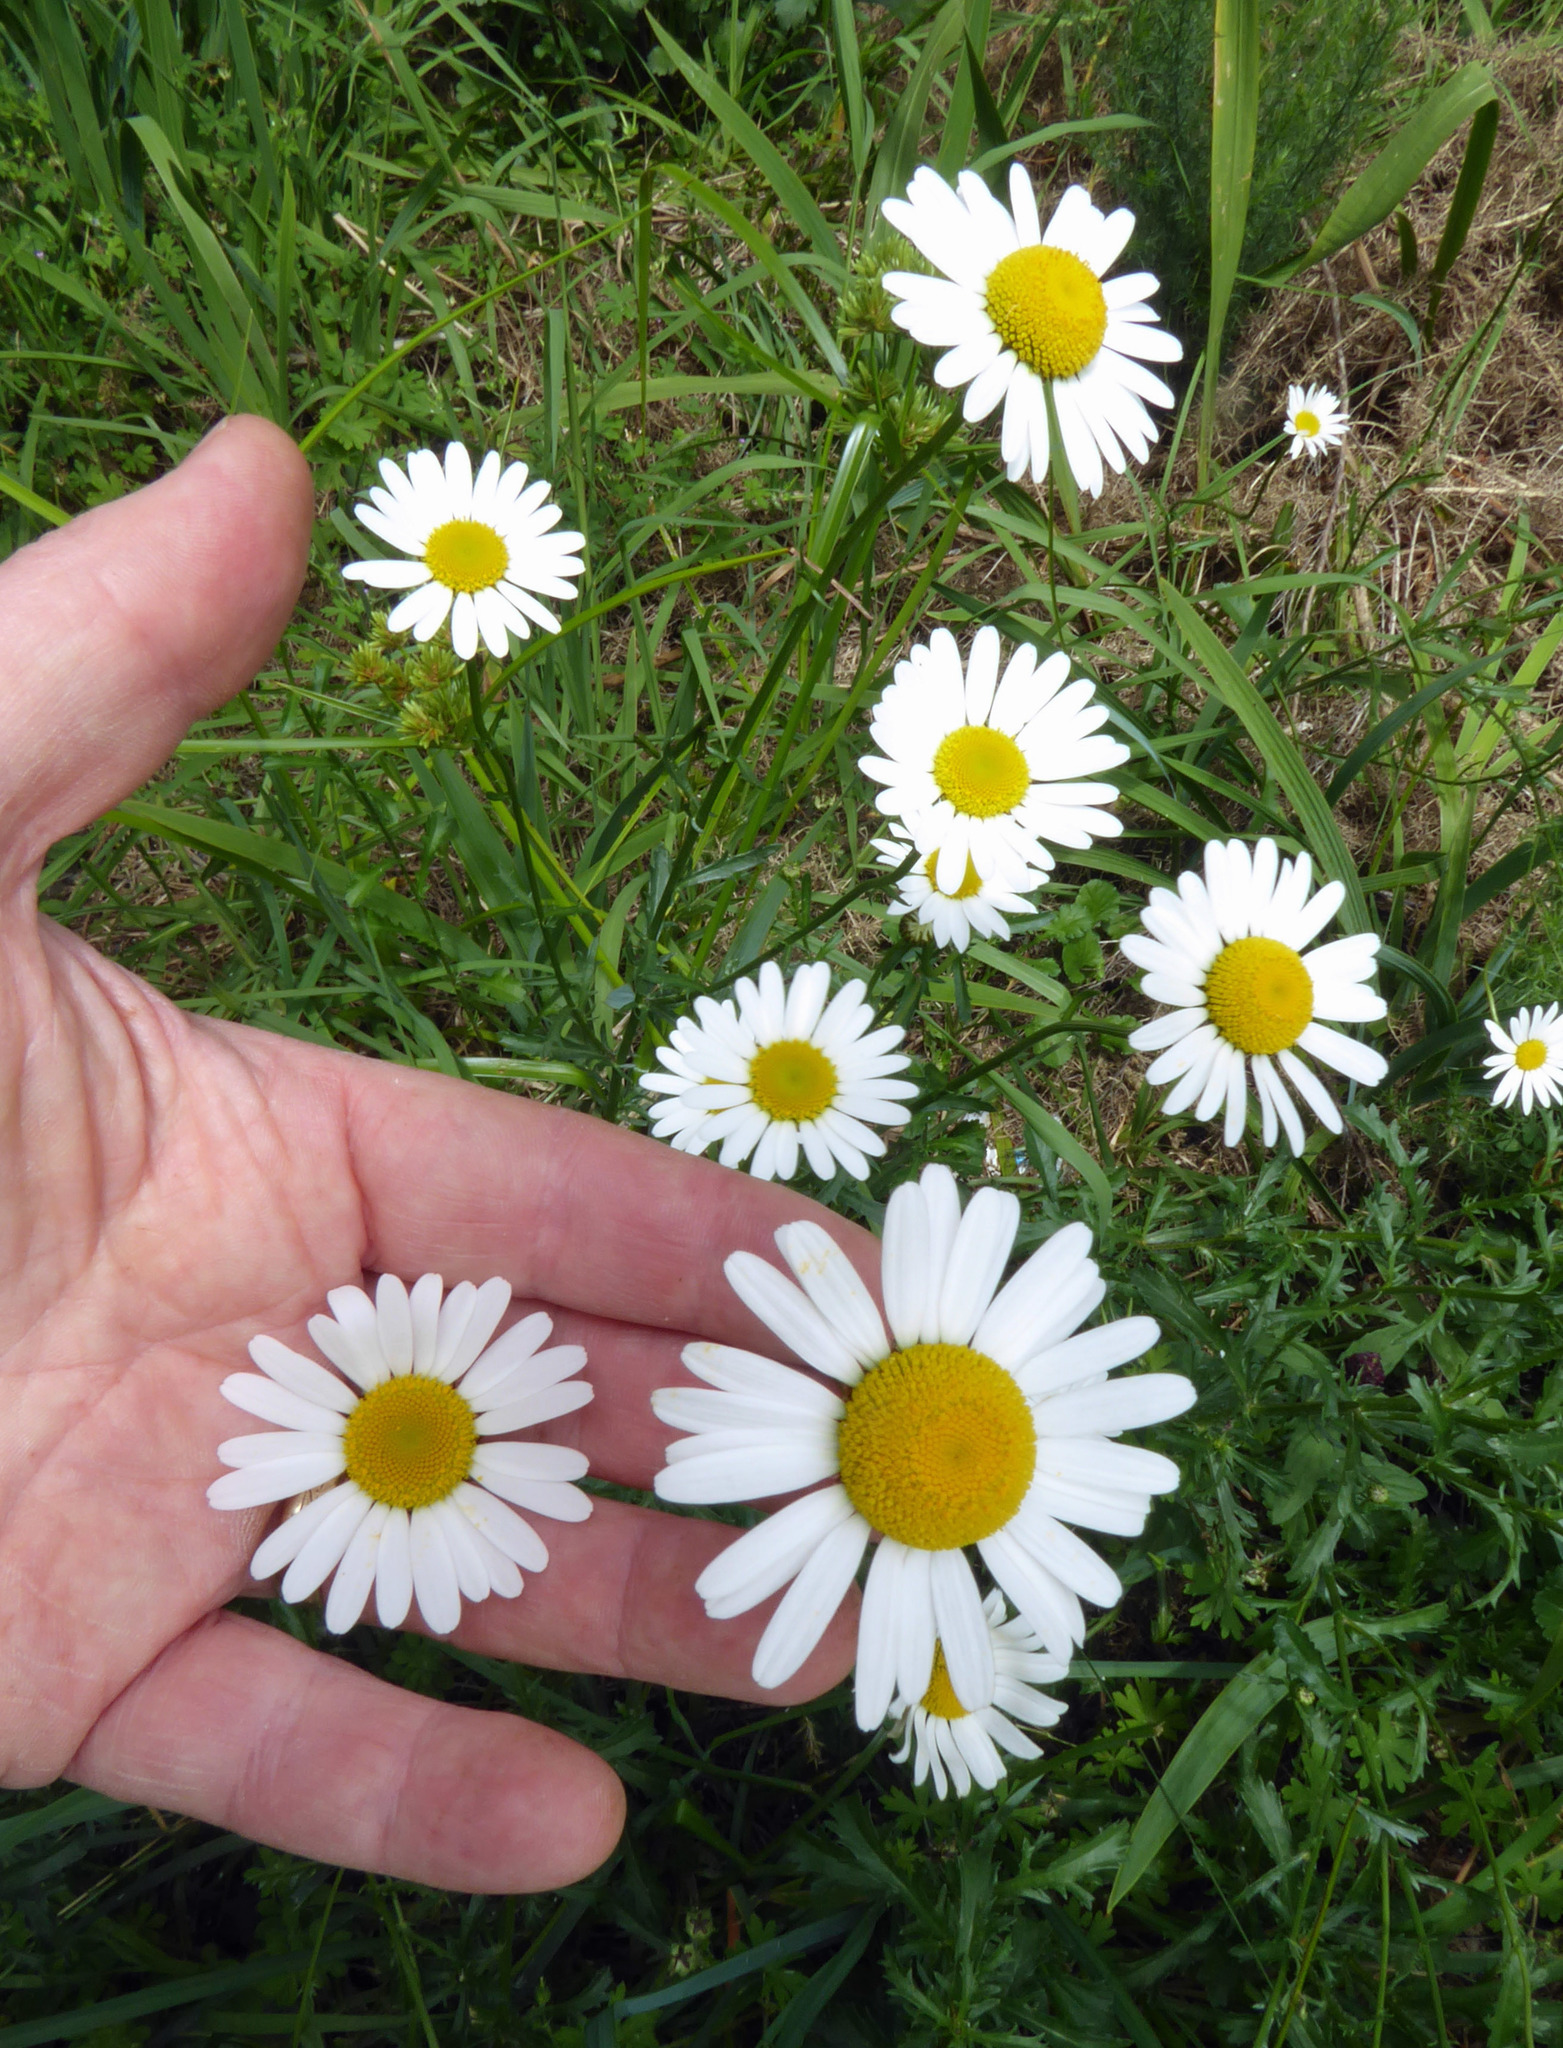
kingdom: Plantae
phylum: Tracheophyta
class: Magnoliopsida
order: Asterales
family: Asteraceae
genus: Leucanthemum
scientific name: Leucanthemum vulgare
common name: Oxeye daisy
